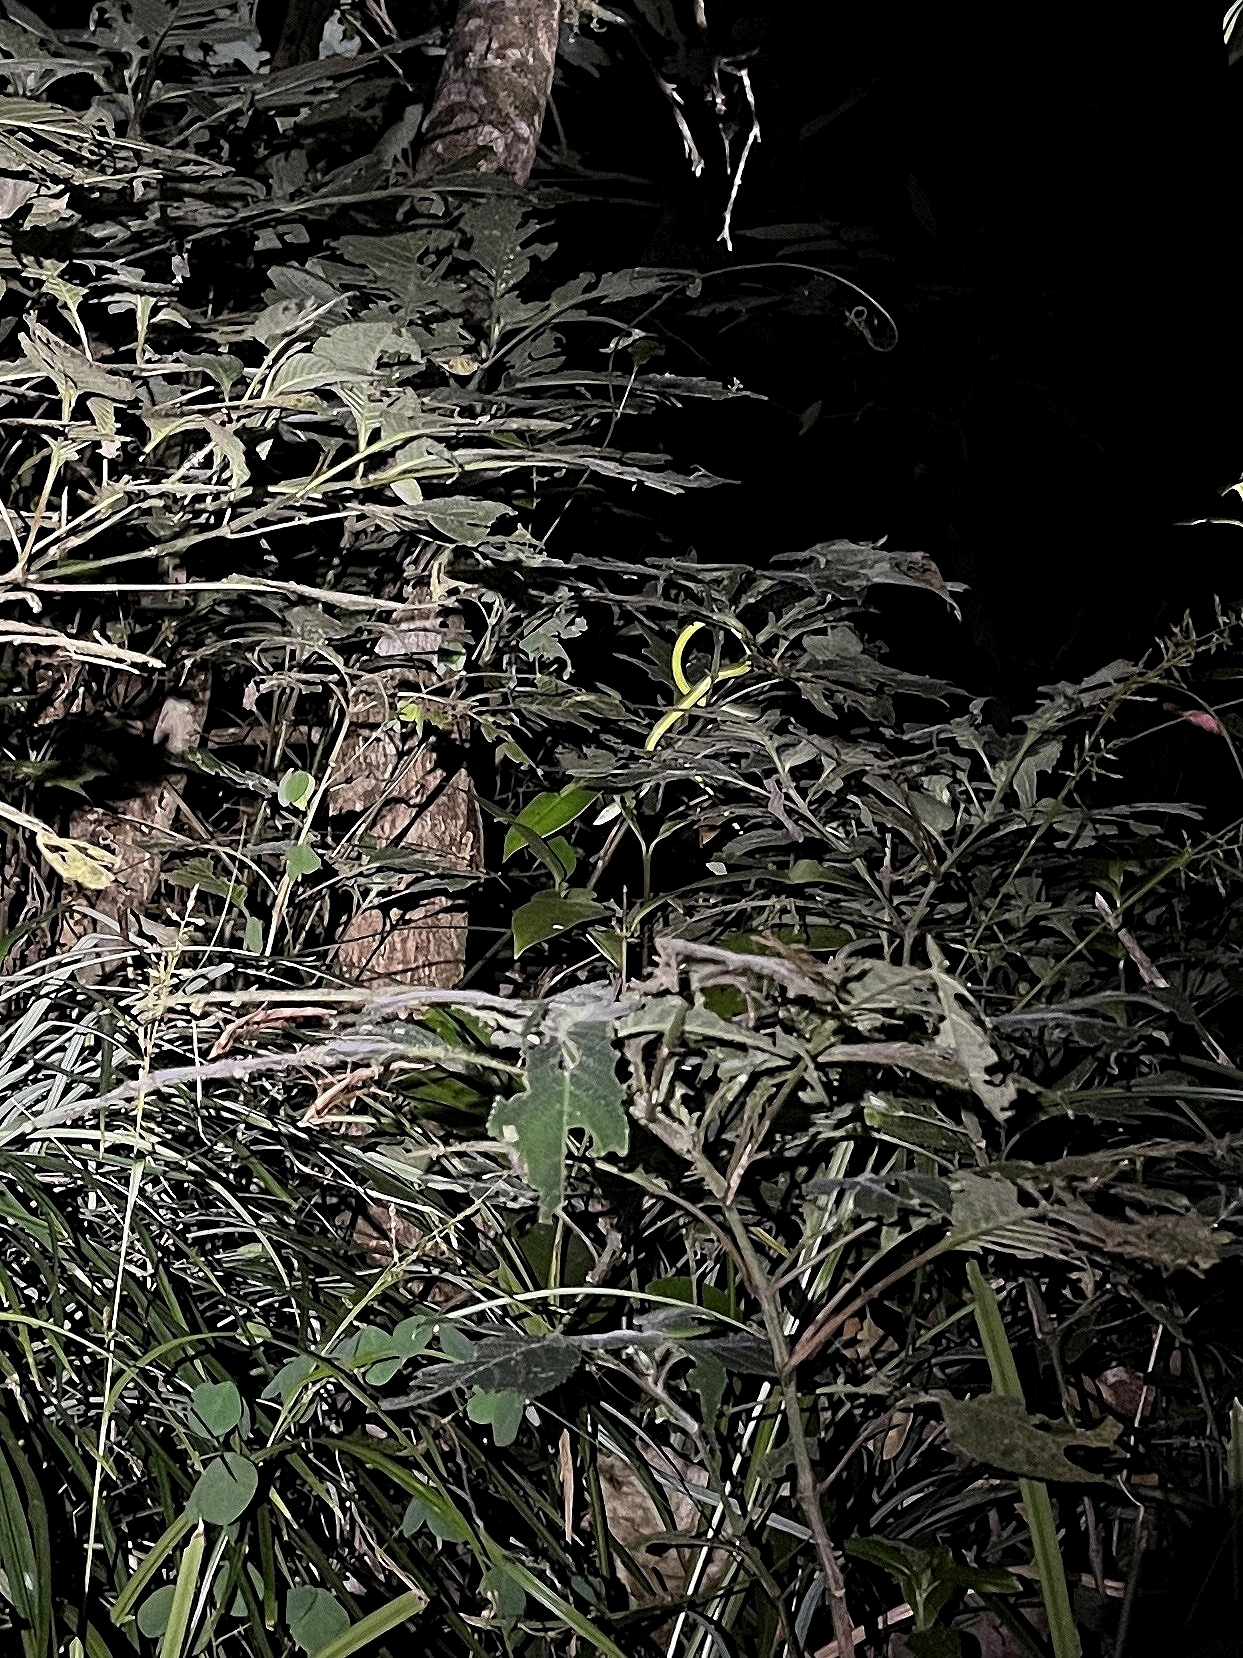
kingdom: Animalia
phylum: Chordata
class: Squamata
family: Colubridae
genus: Ahaetulla
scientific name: Ahaetulla farnsworthi
